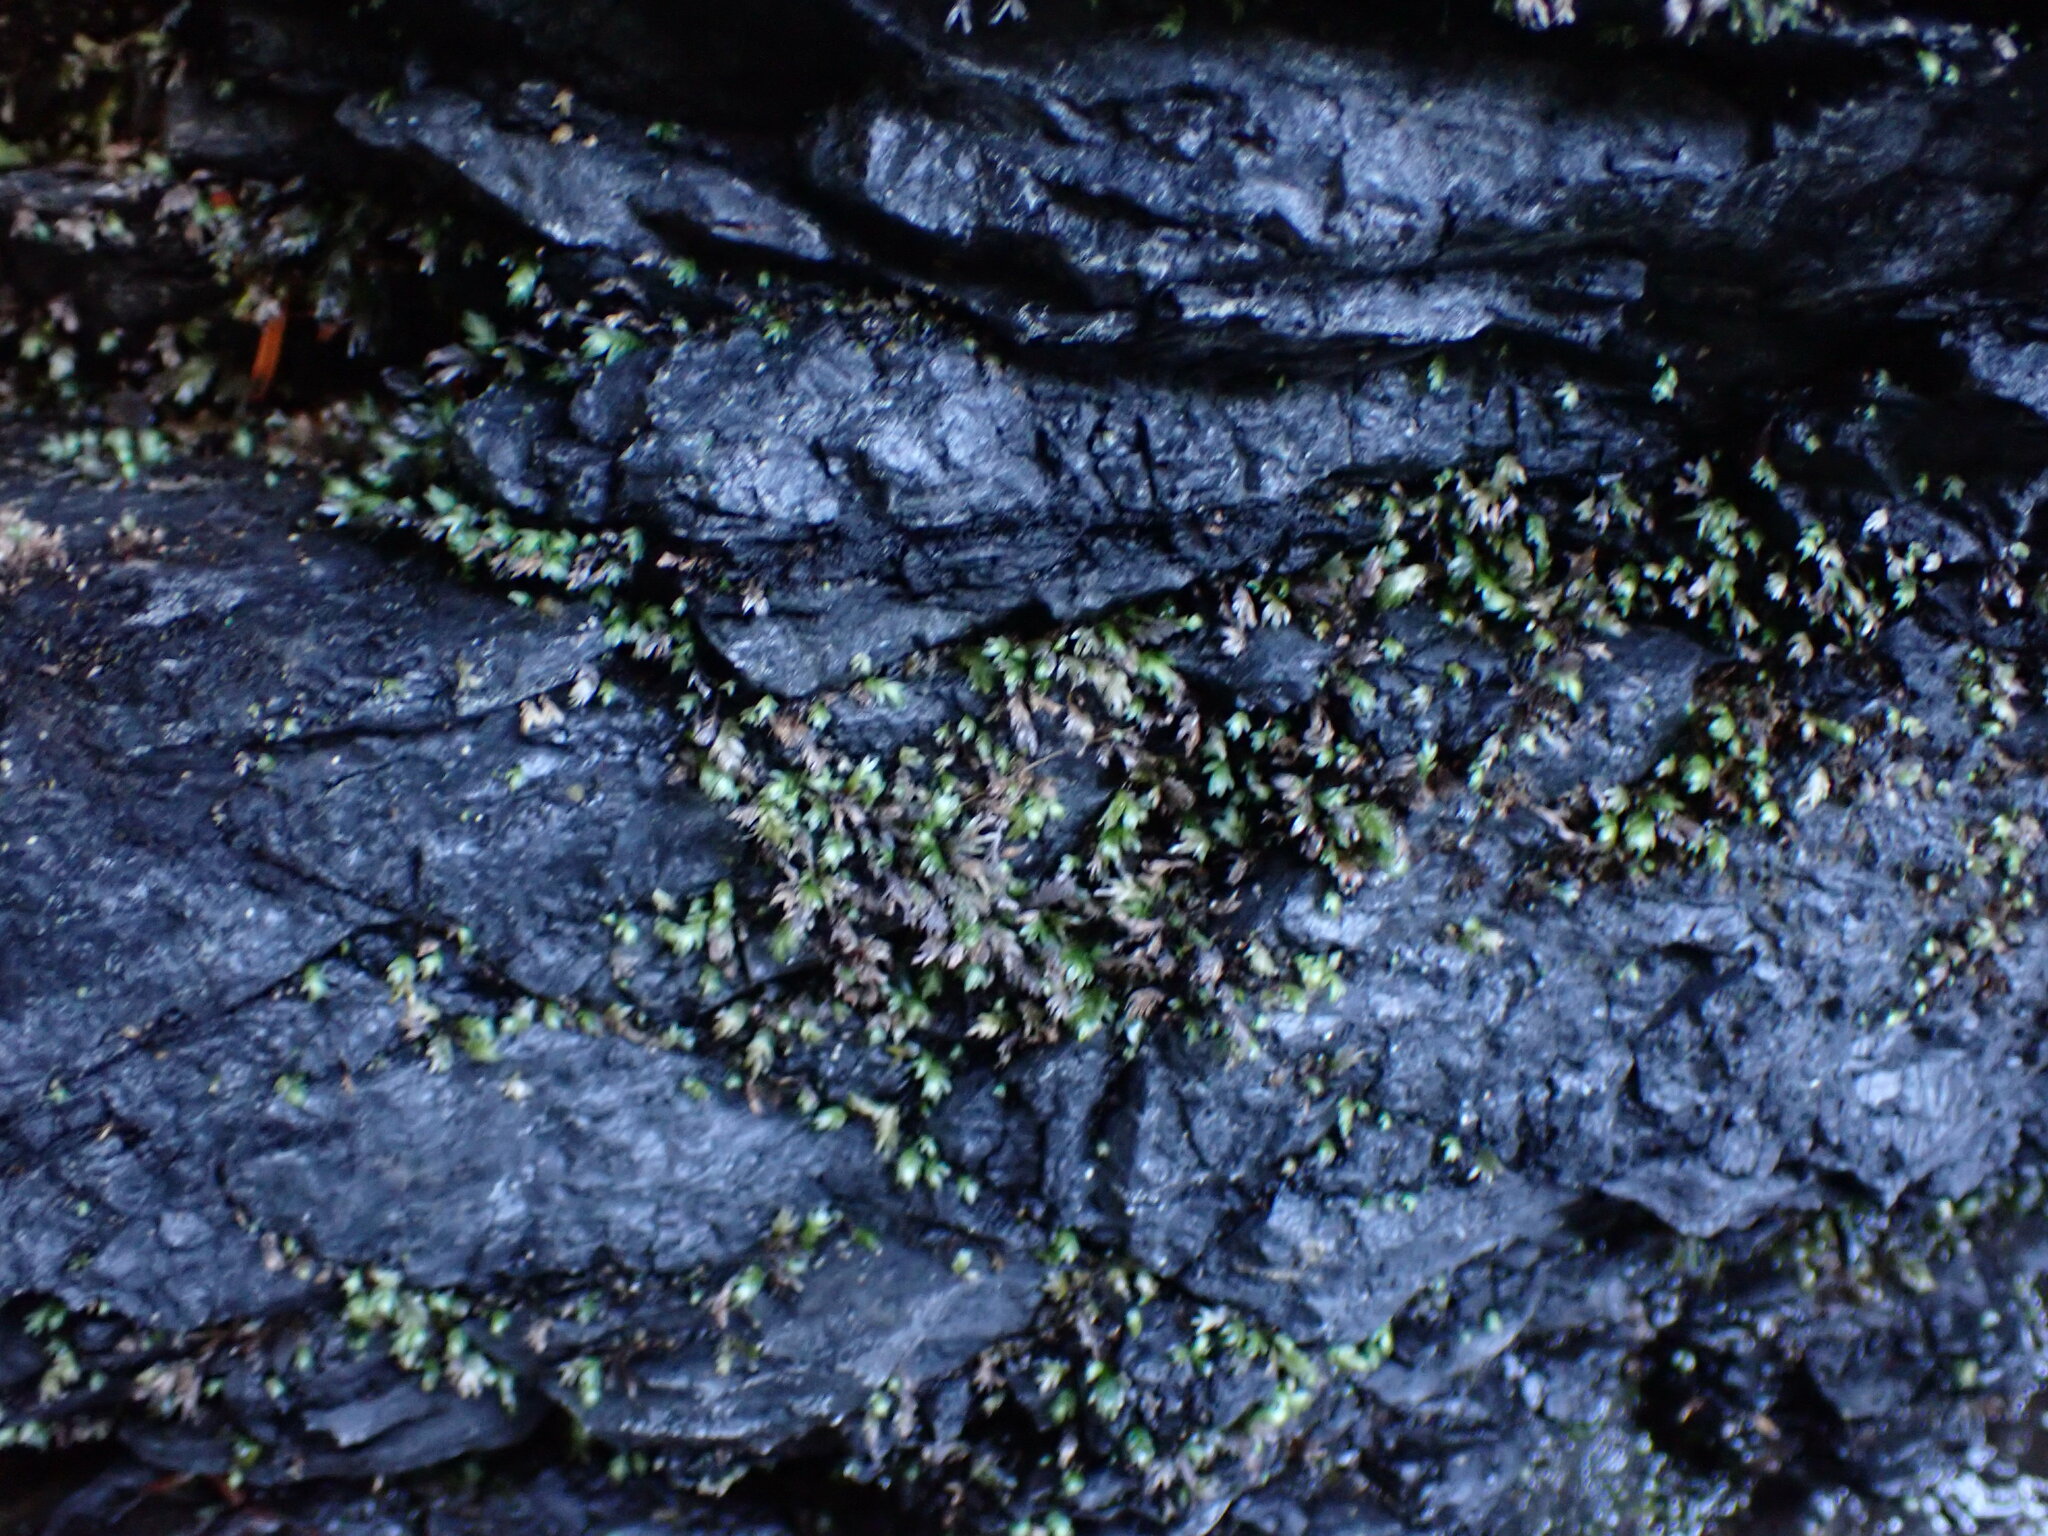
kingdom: Plantae
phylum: Bryophyta
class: Bryopsida
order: Dicranales
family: Fissidentaceae
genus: Fissidens
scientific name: Fissidens bryoides
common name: Lesser pocket moss
